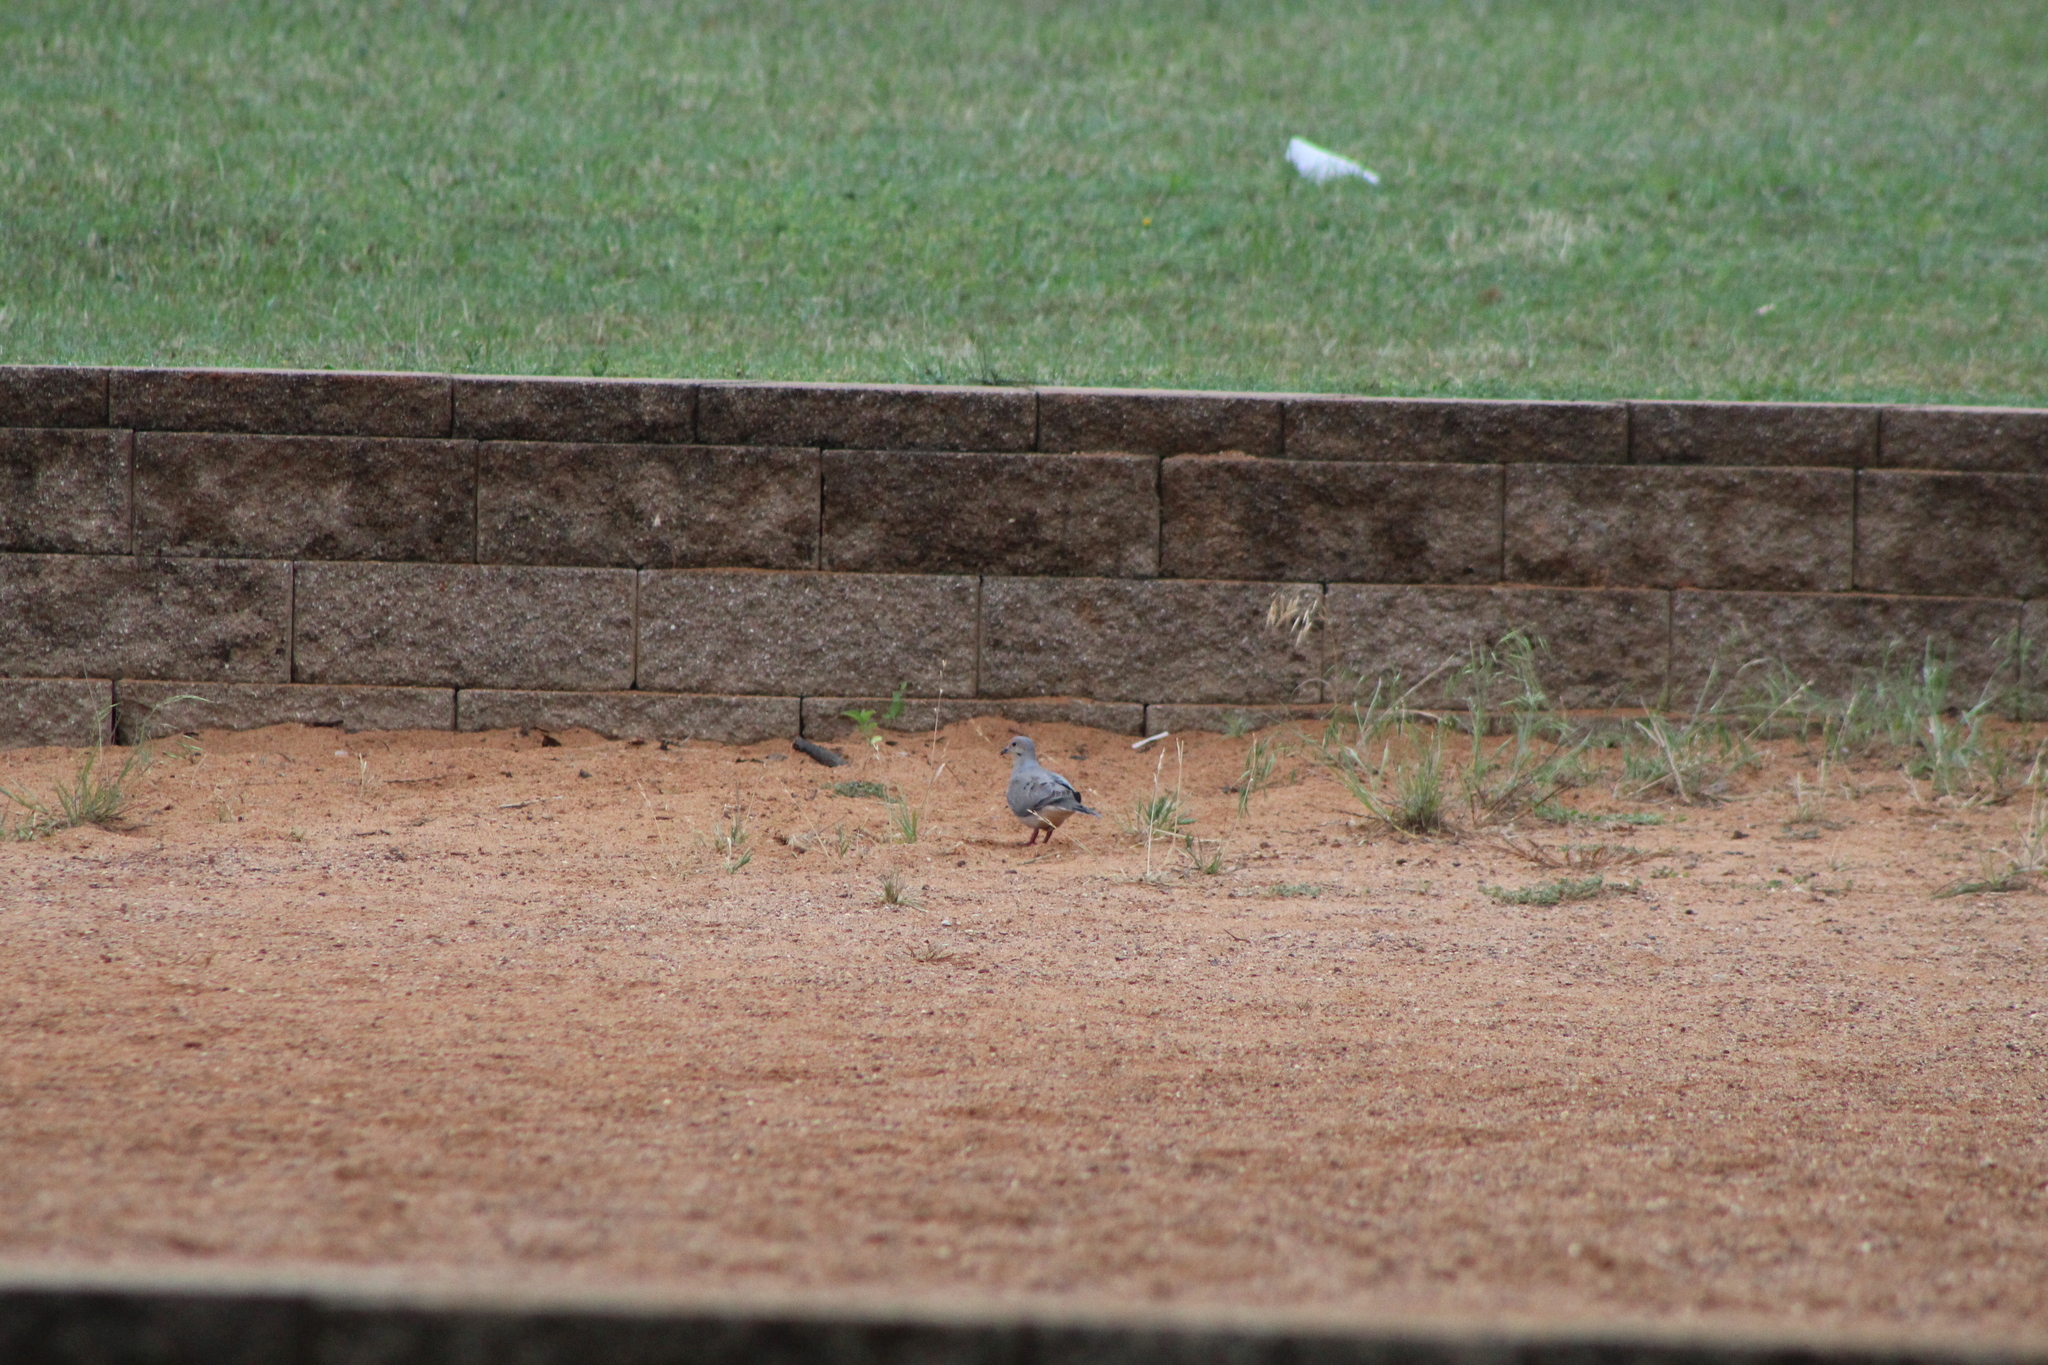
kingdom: Animalia
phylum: Chordata
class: Aves
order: Columbiformes
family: Columbidae
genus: Zenaida
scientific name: Zenaida macroura
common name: Mourning dove
